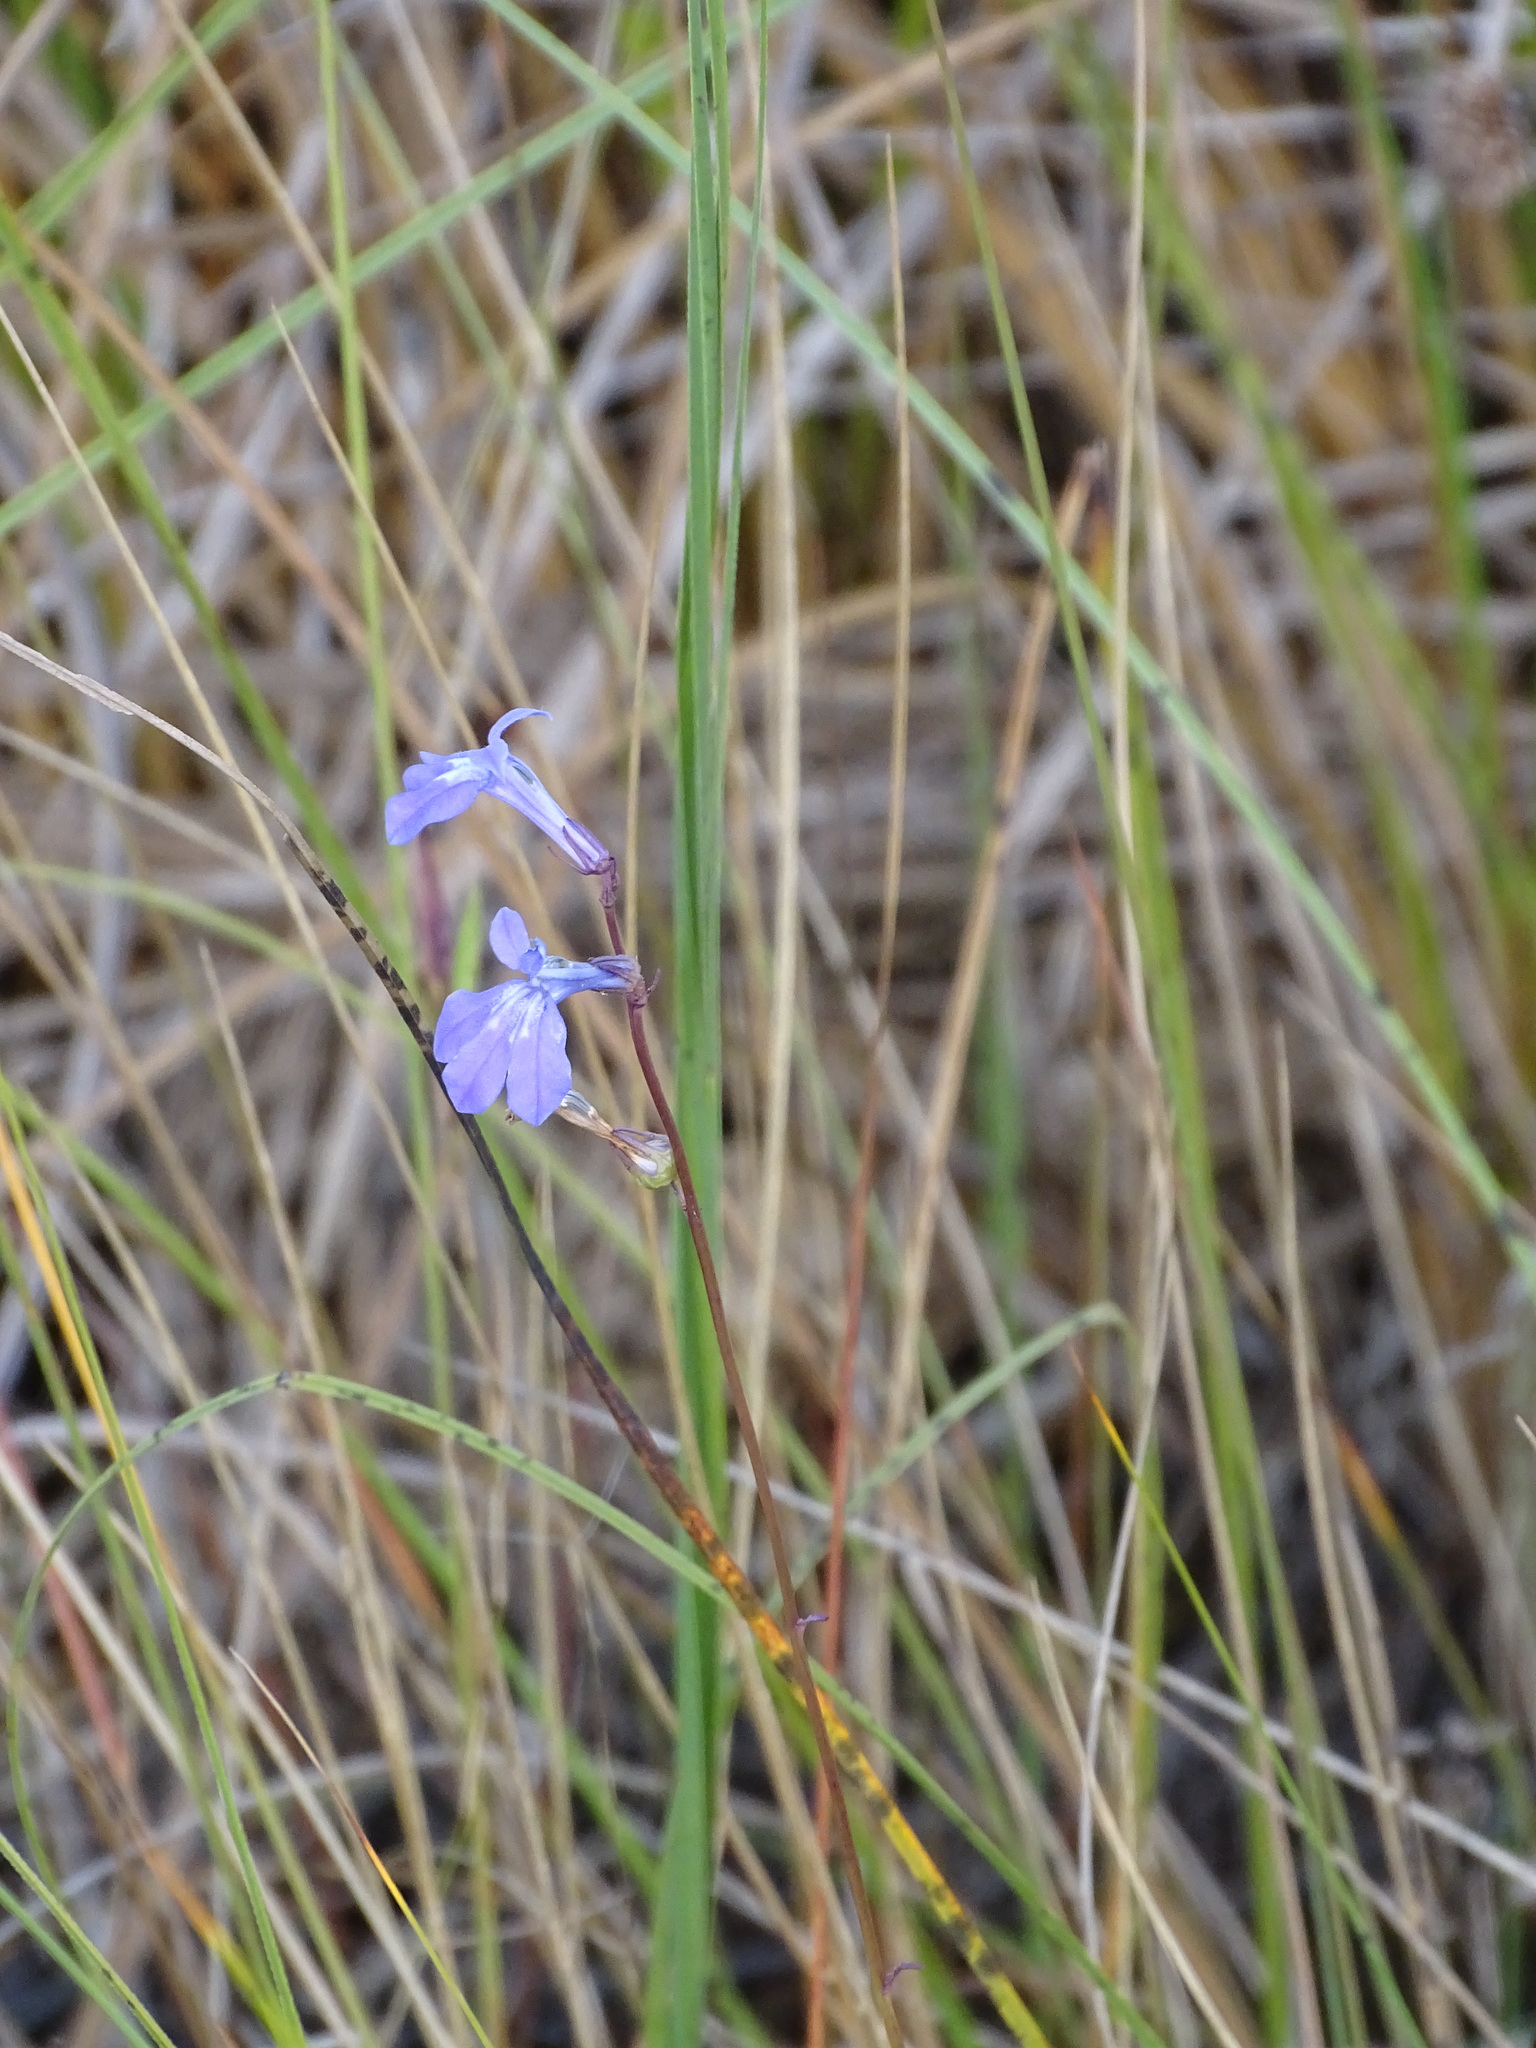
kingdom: Plantae
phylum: Tracheophyta
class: Magnoliopsida
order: Asterales
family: Campanulaceae
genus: Lobelia
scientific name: Lobelia glandulosa
